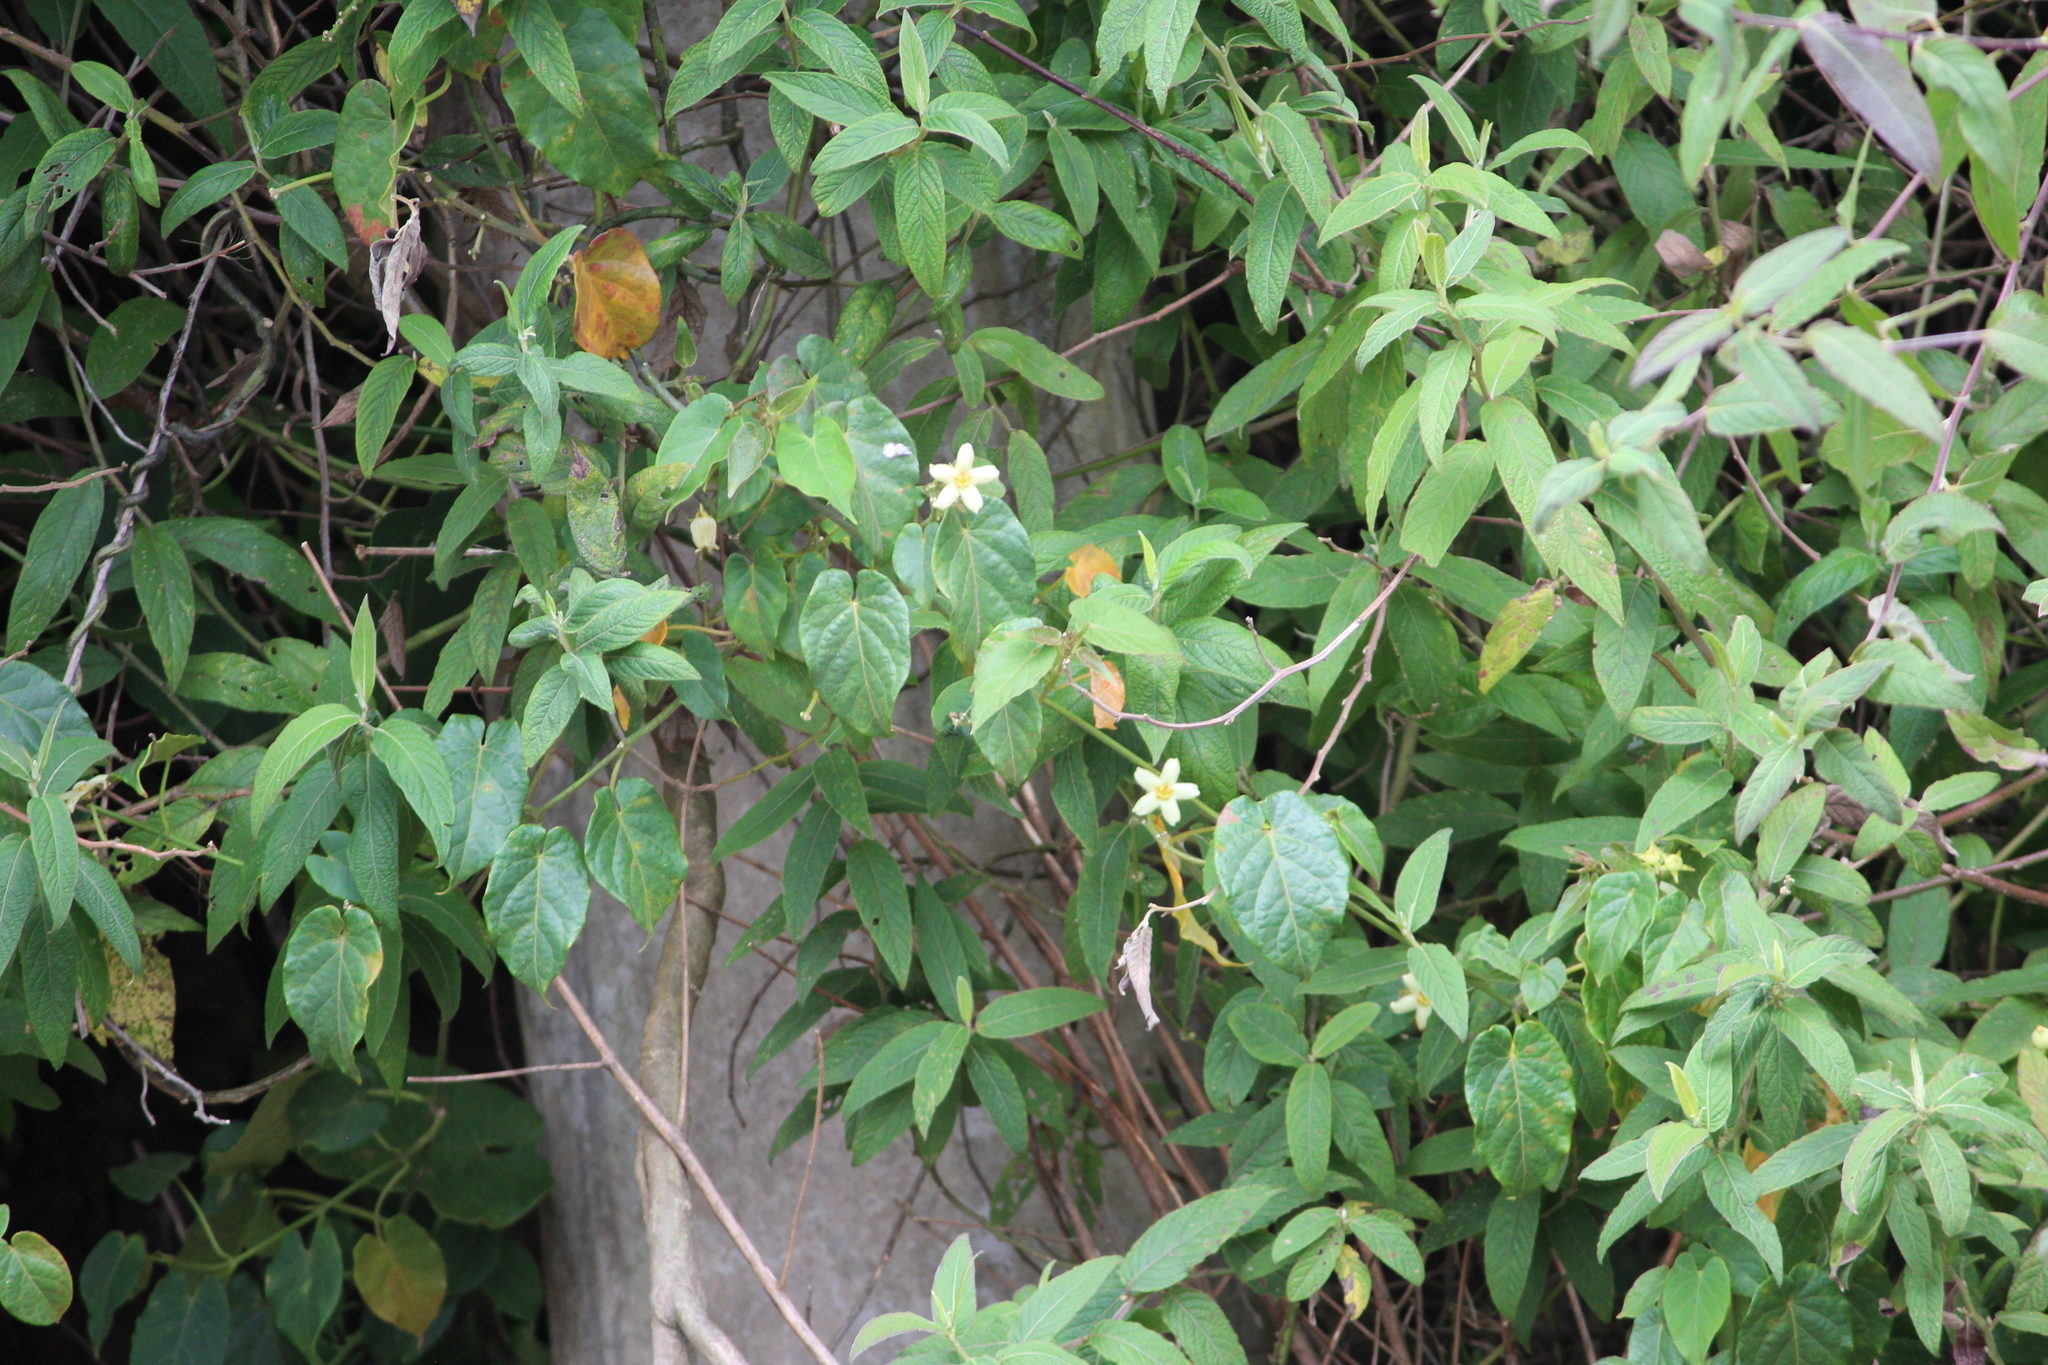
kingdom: Plantae
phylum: Tracheophyta
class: Magnoliopsida
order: Gentianales
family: Apocynaceae
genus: Gonolobus
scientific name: Gonolobus edulis
